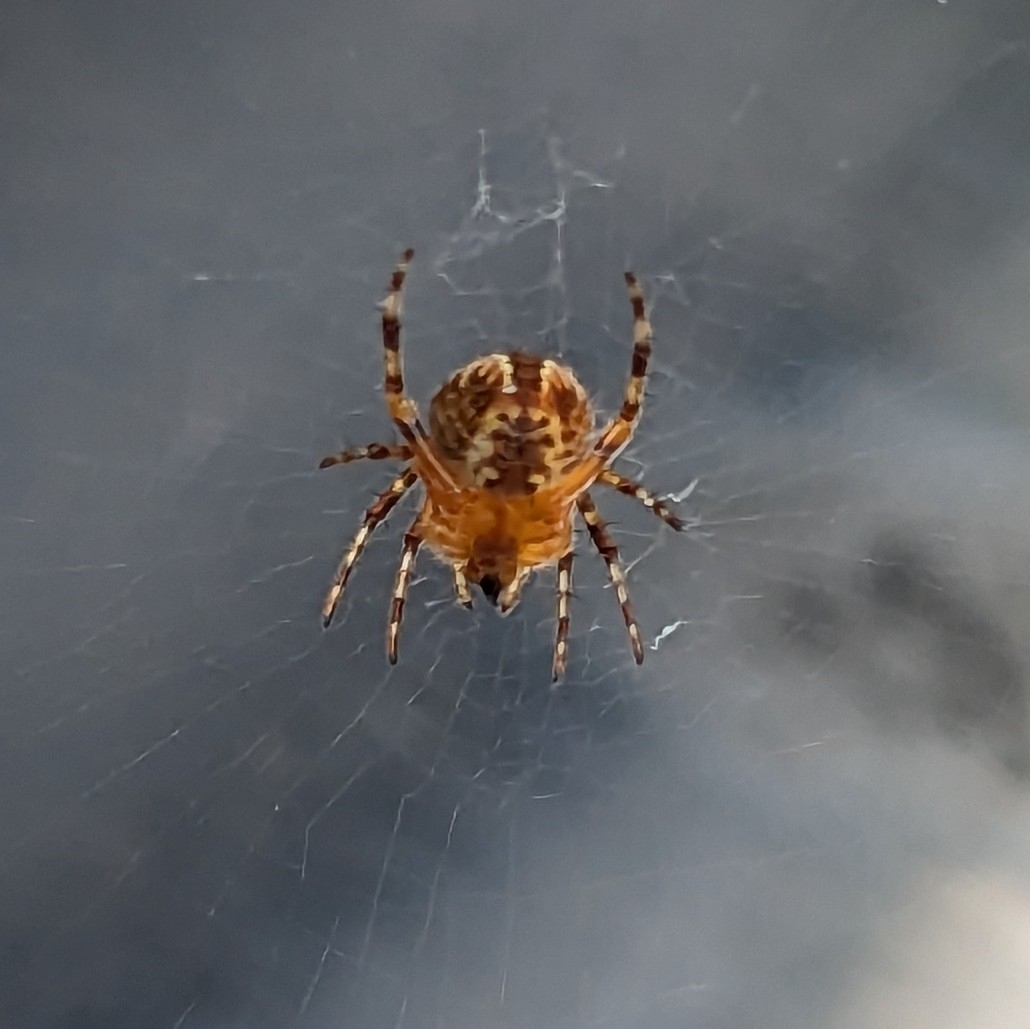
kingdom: Animalia
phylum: Arthropoda
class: Arachnida
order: Araneae
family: Araneidae
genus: Araneus
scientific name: Araneus diadematus
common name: Cross orbweaver
